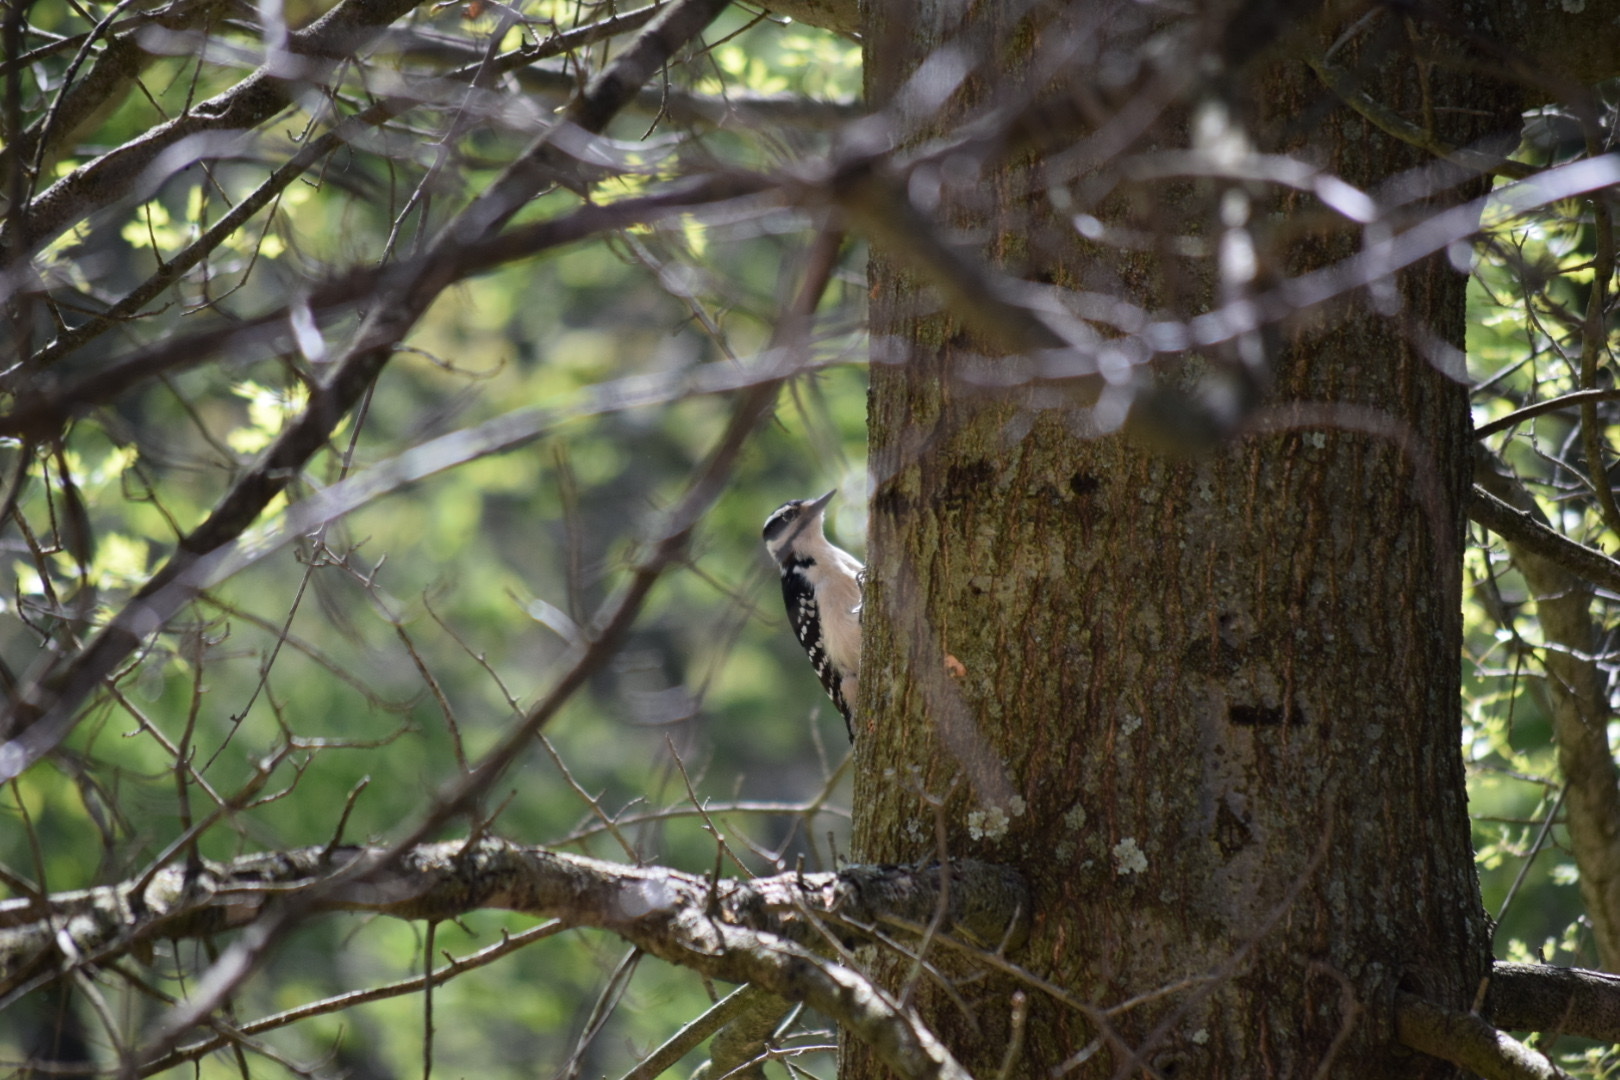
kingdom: Animalia
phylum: Chordata
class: Aves
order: Piciformes
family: Picidae
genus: Leuconotopicus
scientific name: Leuconotopicus villosus
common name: Hairy woodpecker
